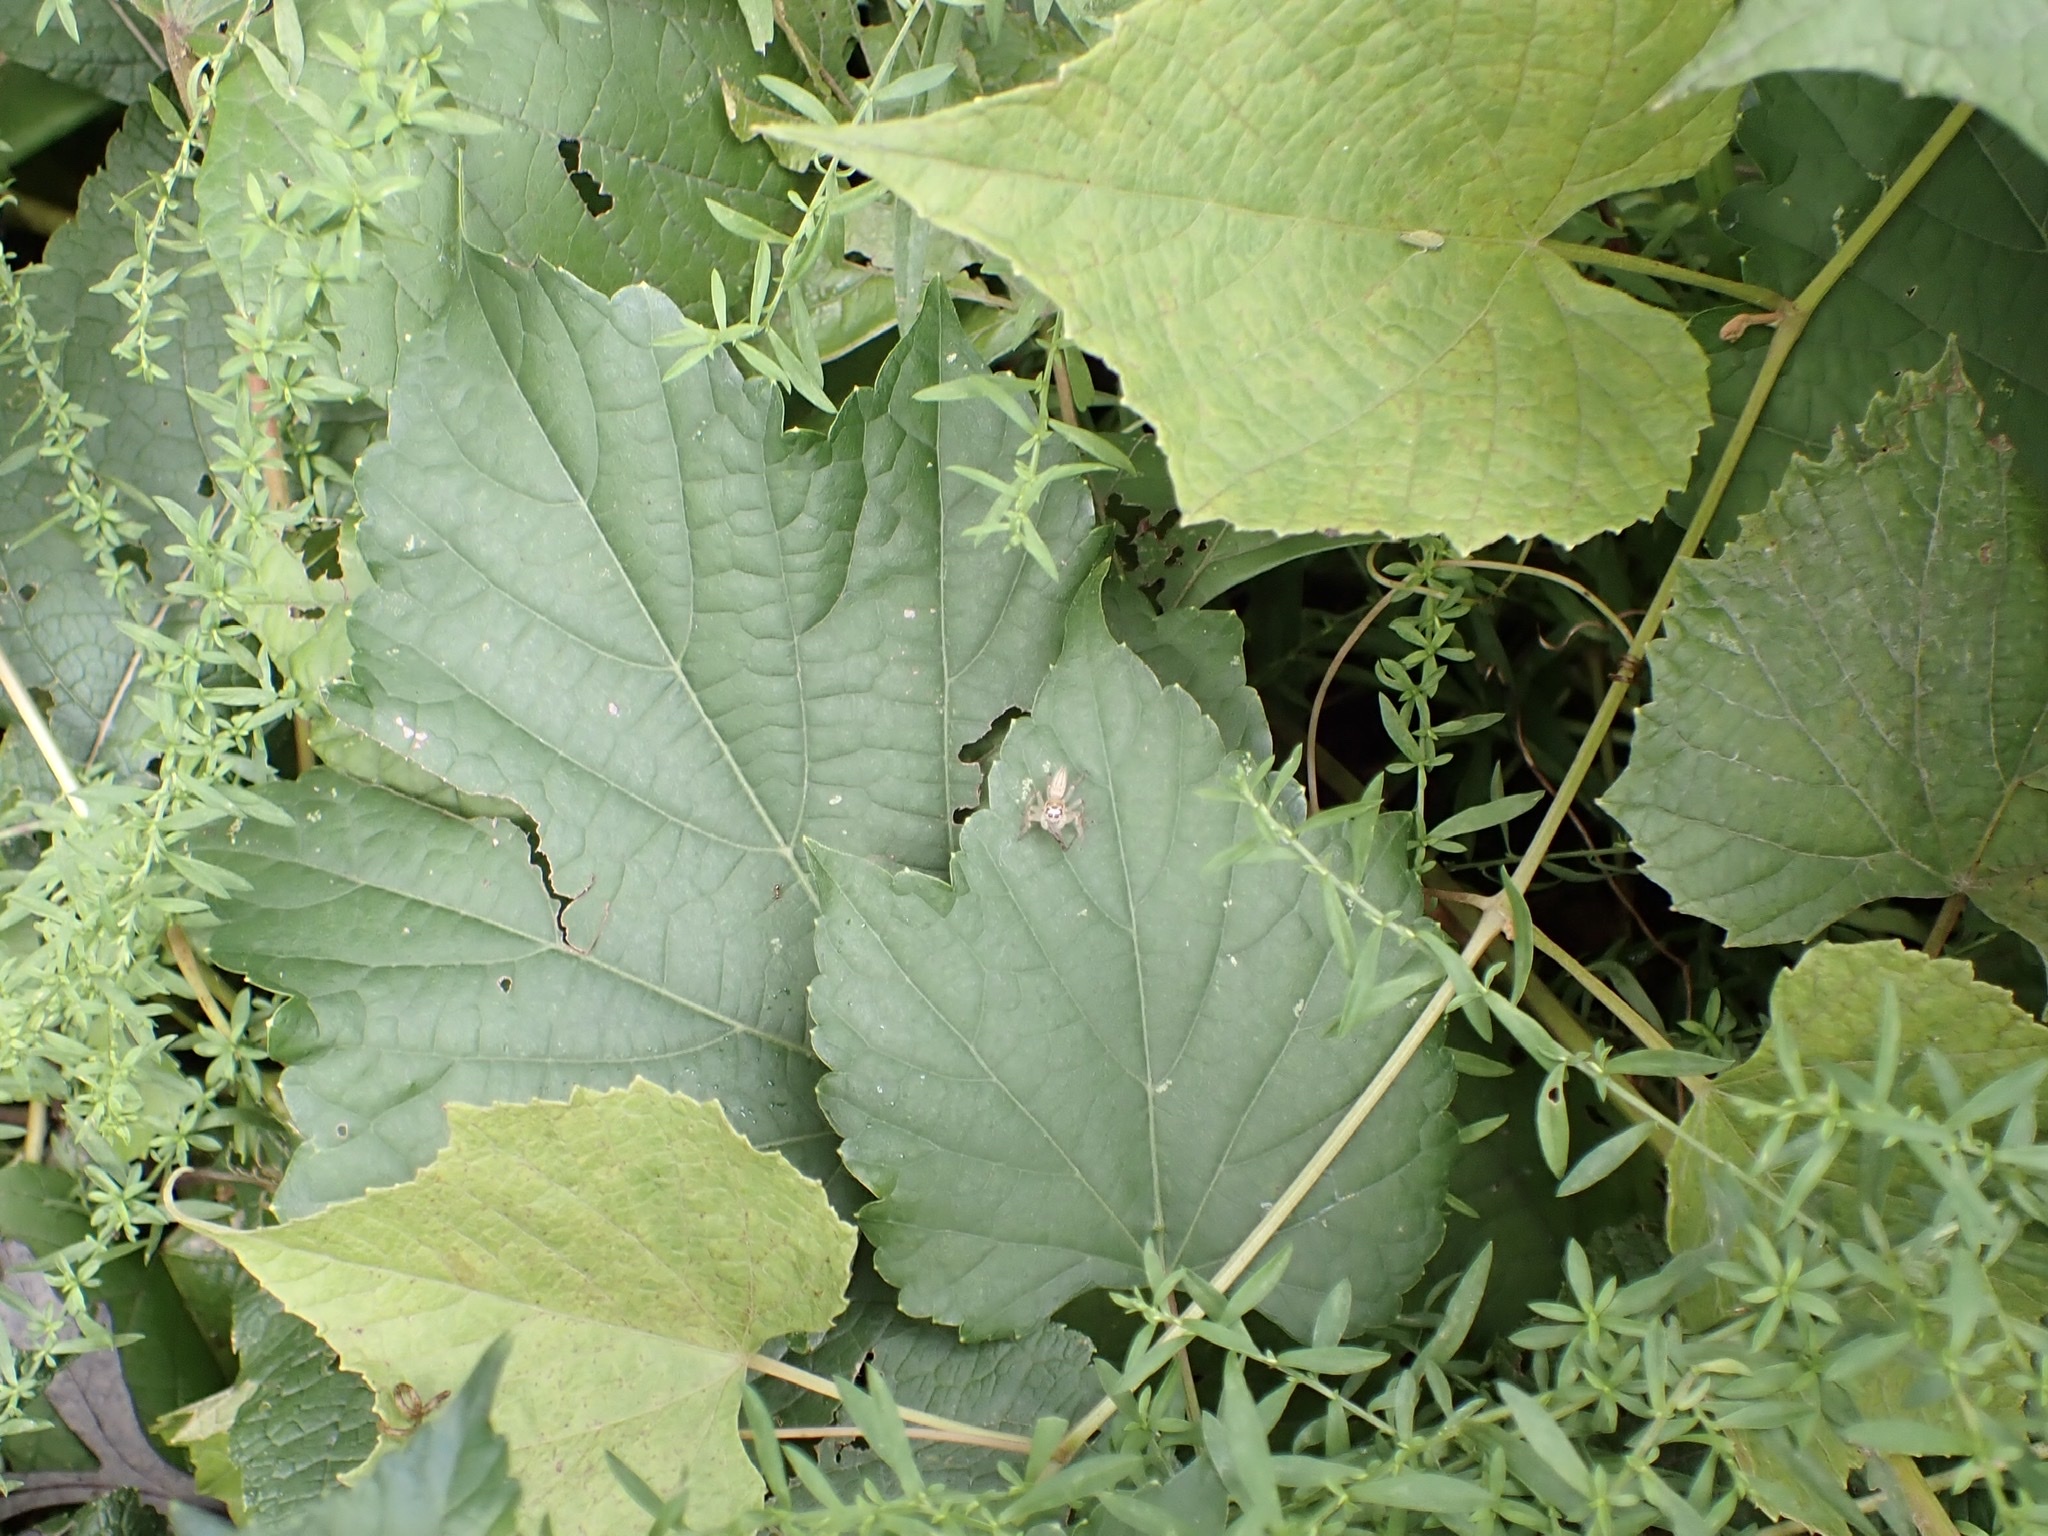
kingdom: Animalia
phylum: Arthropoda
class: Arachnida
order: Araneae
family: Salticidae
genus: Colonus
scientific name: Colonus sylvanus
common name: Jumping spiders
